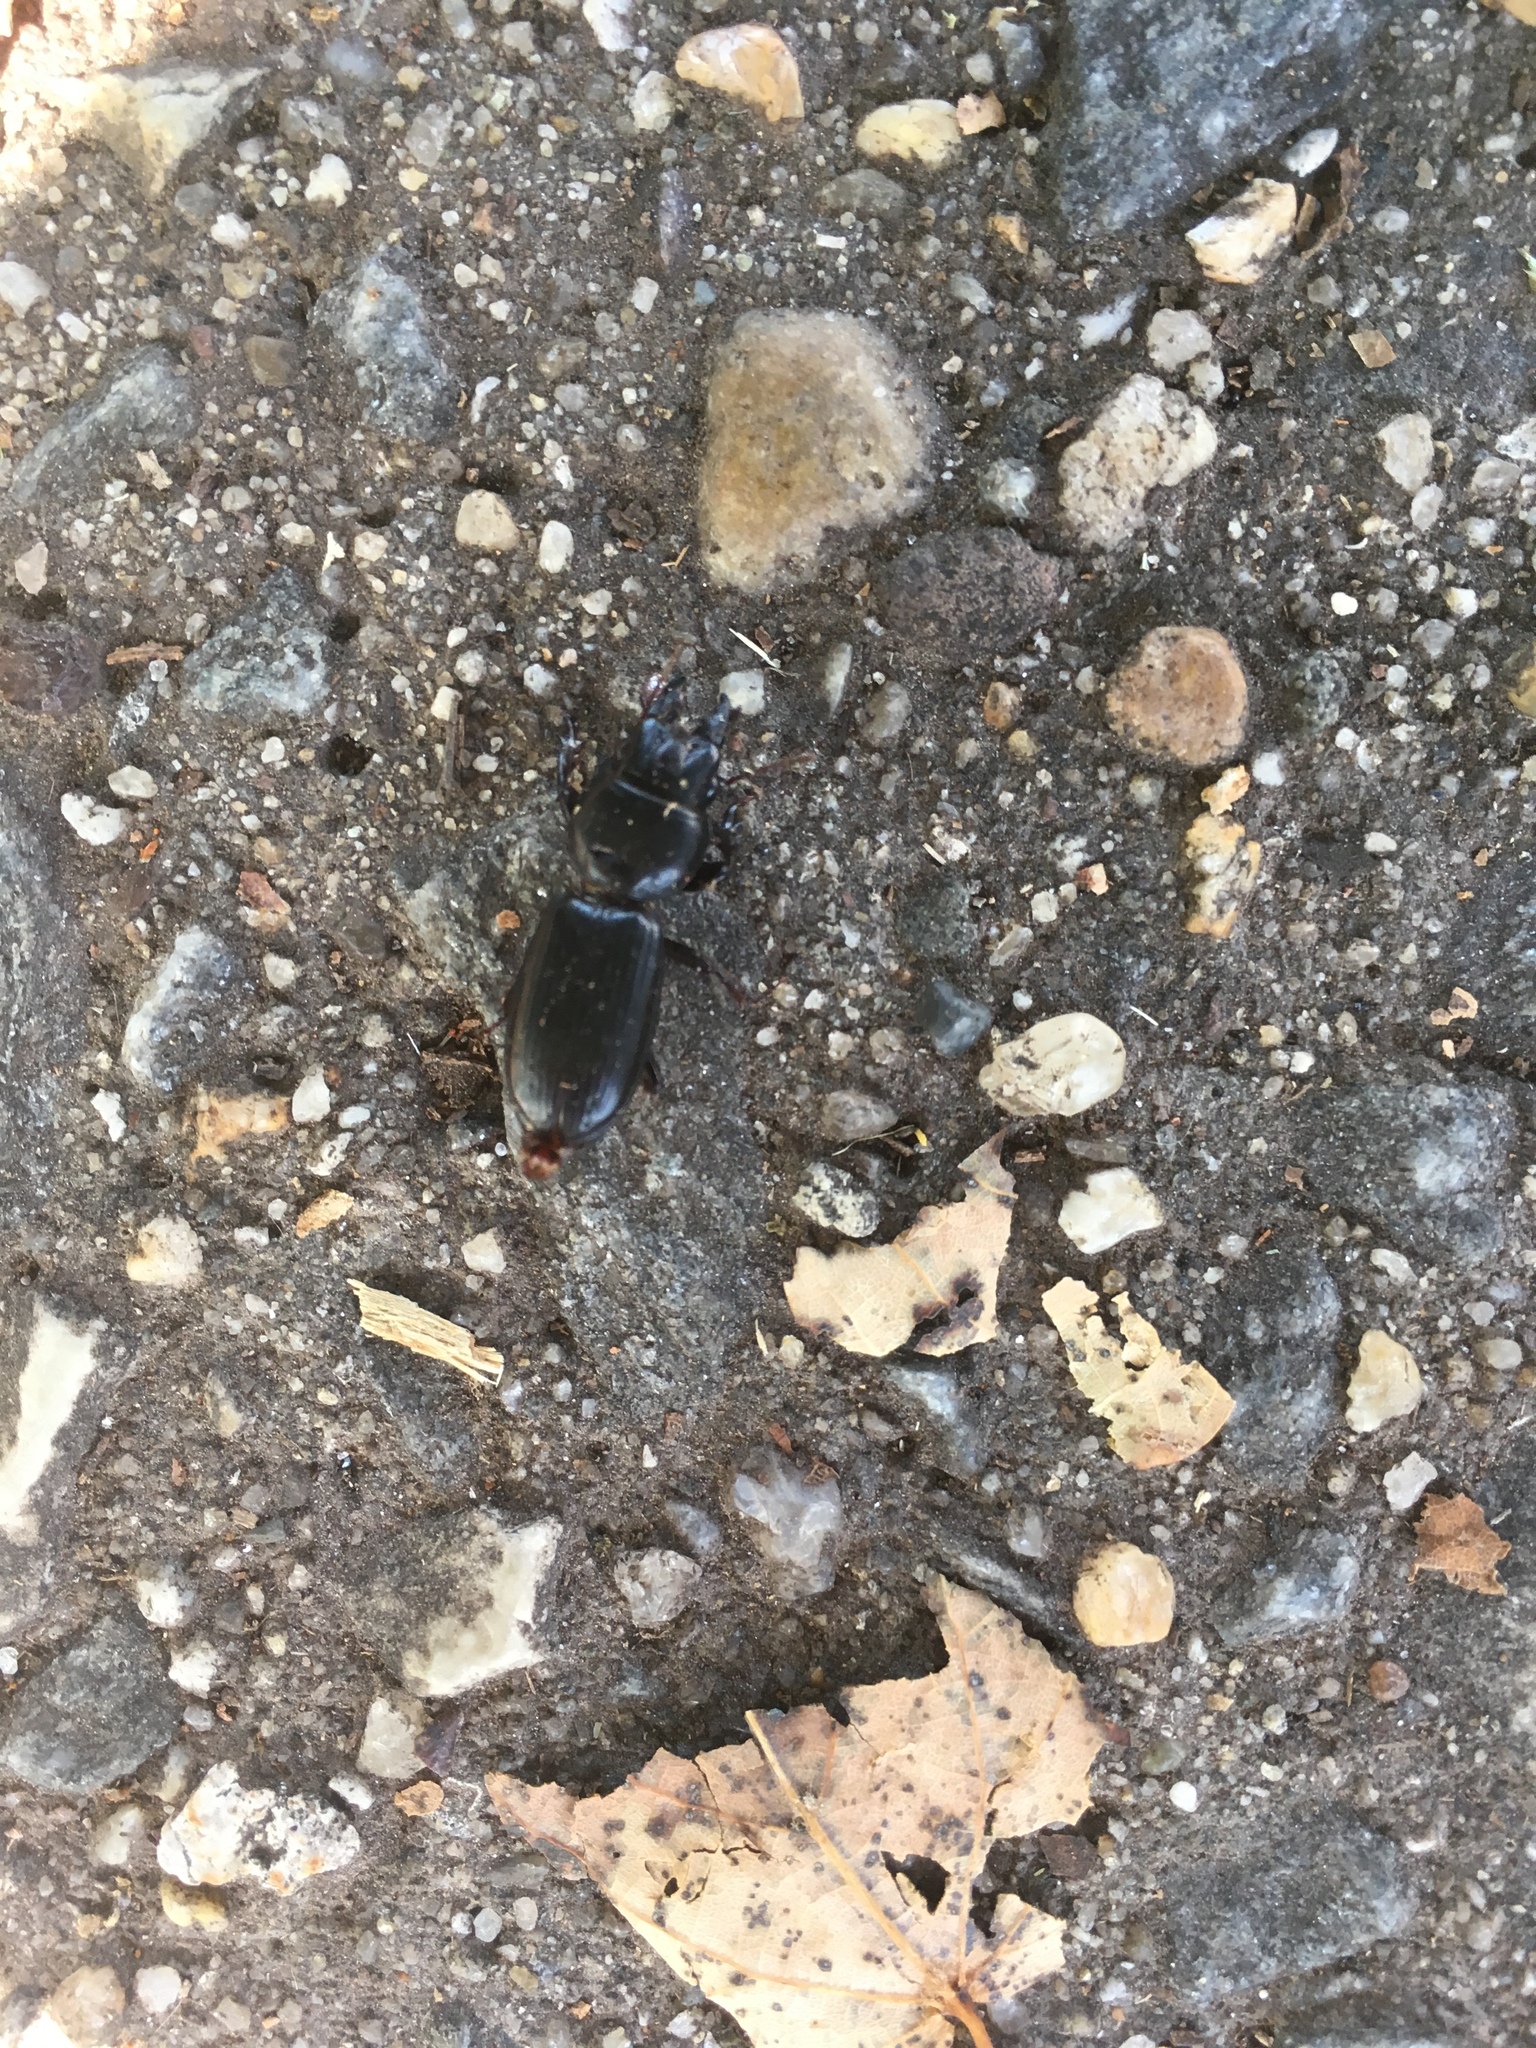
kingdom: Animalia
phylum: Arthropoda
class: Insecta
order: Coleoptera
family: Carabidae
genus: Scarites
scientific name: Scarites subterraneus
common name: Big-headed ground beetle
